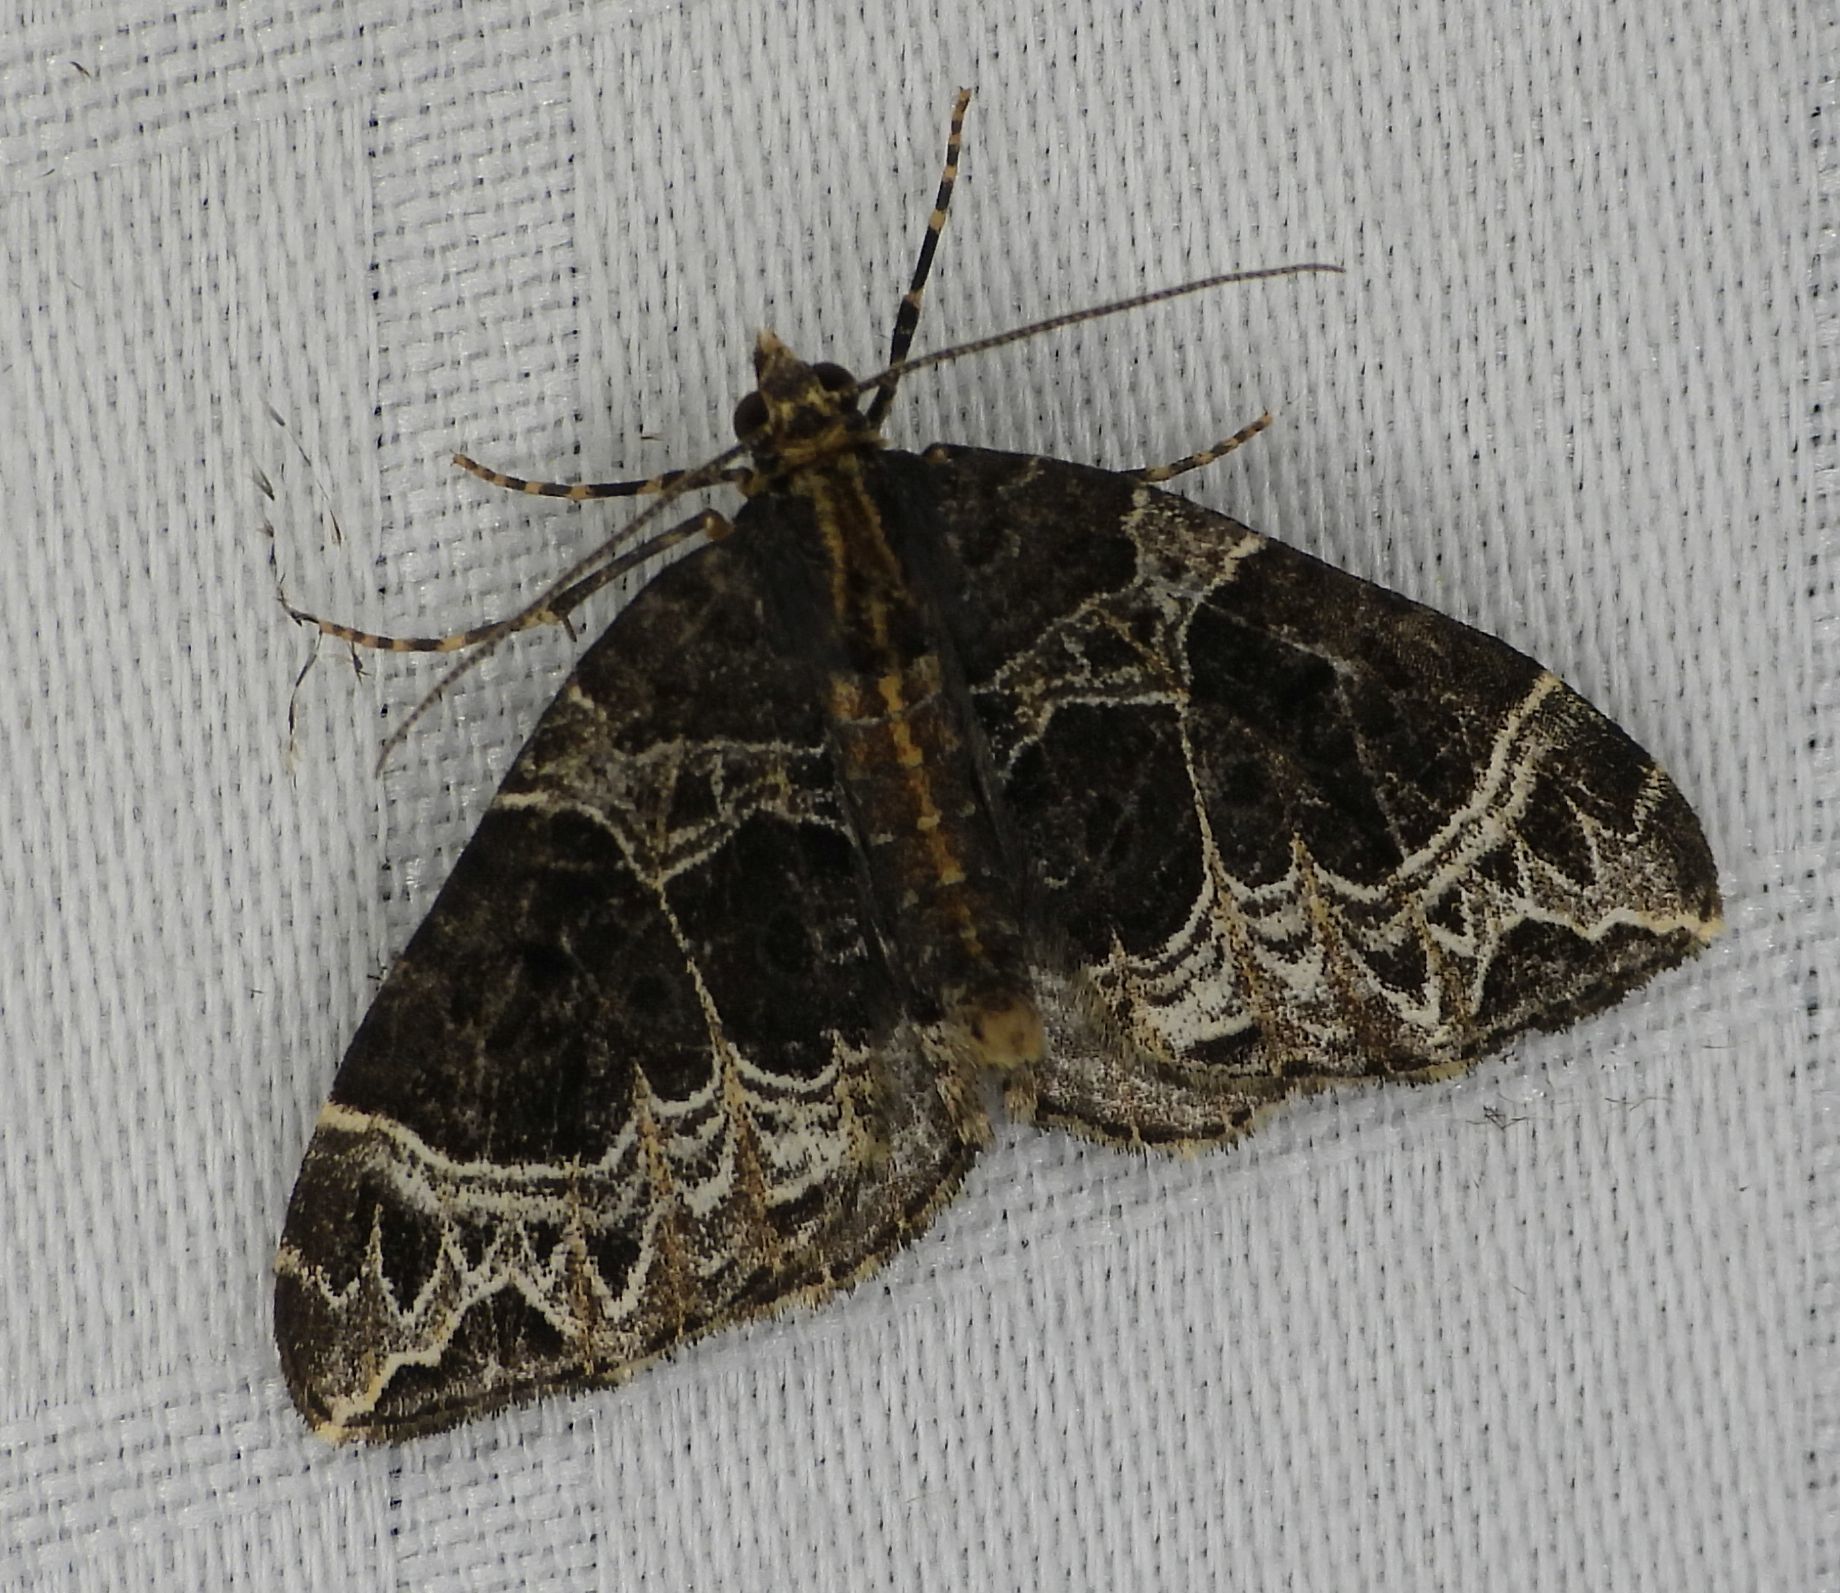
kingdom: Animalia
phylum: Arthropoda
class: Insecta
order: Lepidoptera
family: Geometridae
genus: Ecliptopera
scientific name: Ecliptopera silaceata
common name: Small phoenix
